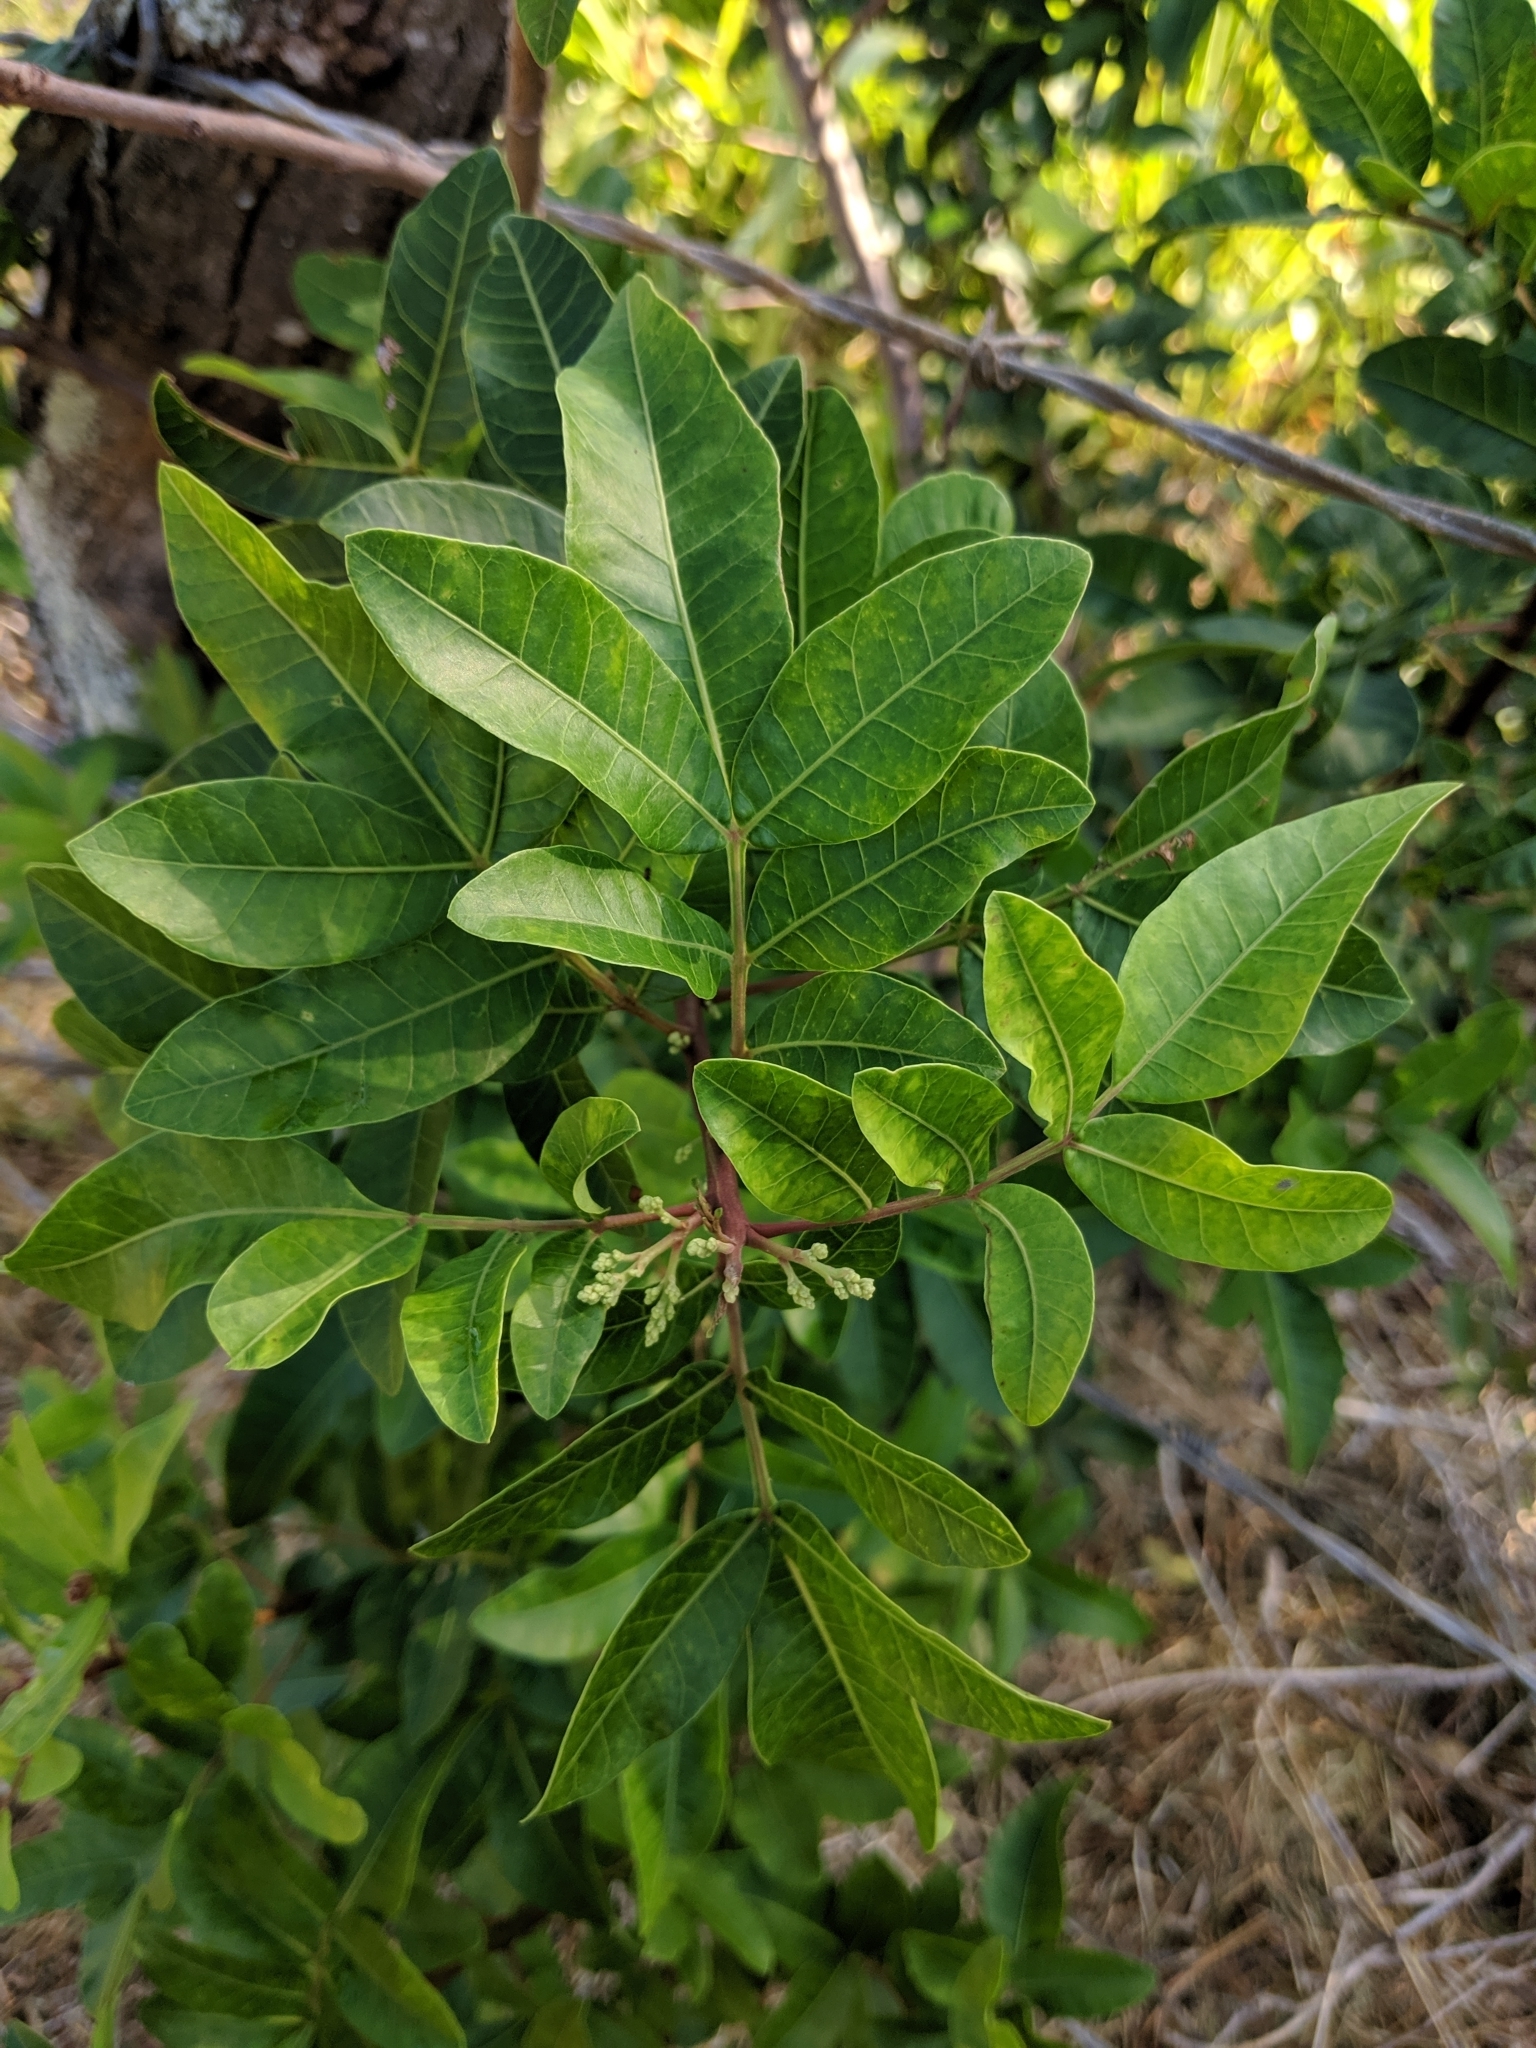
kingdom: Plantae
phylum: Tracheophyta
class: Magnoliopsida
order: Sapindales
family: Anacardiaceae
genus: Schinus
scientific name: Schinus terebinthifolia
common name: Brazilian peppertree
